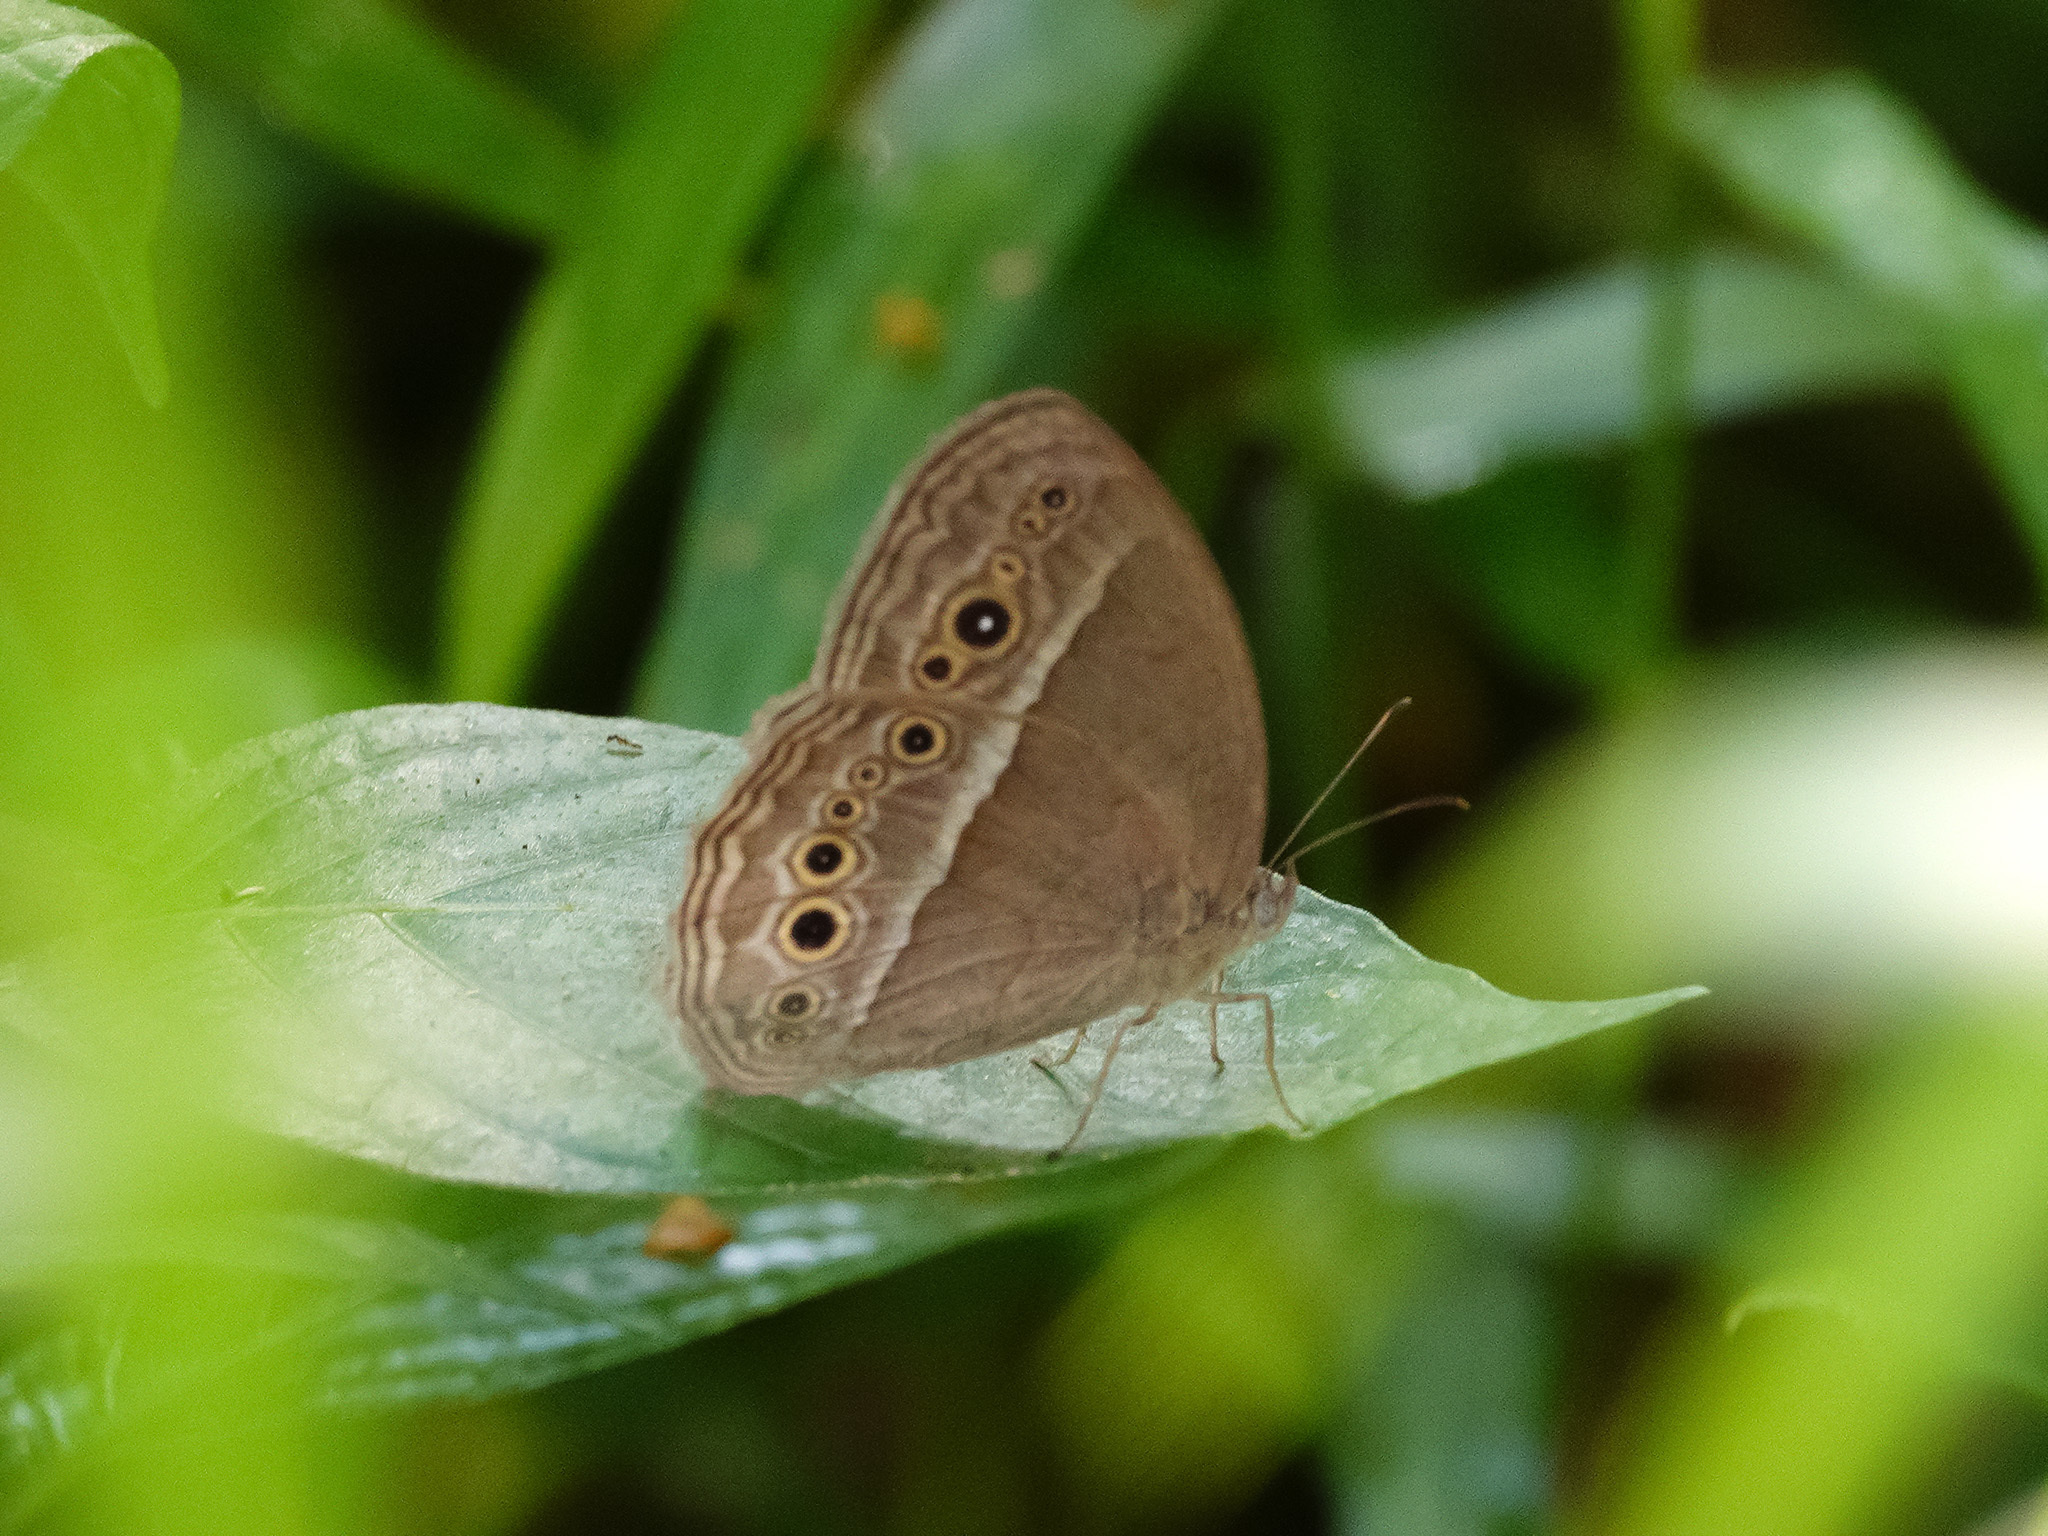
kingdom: Animalia
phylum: Arthropoda
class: Insecta
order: Lepidoptera
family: Nymphalidae
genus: Mycalesis
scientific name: Mycalesis perseoides
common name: Burmese bushbrown
